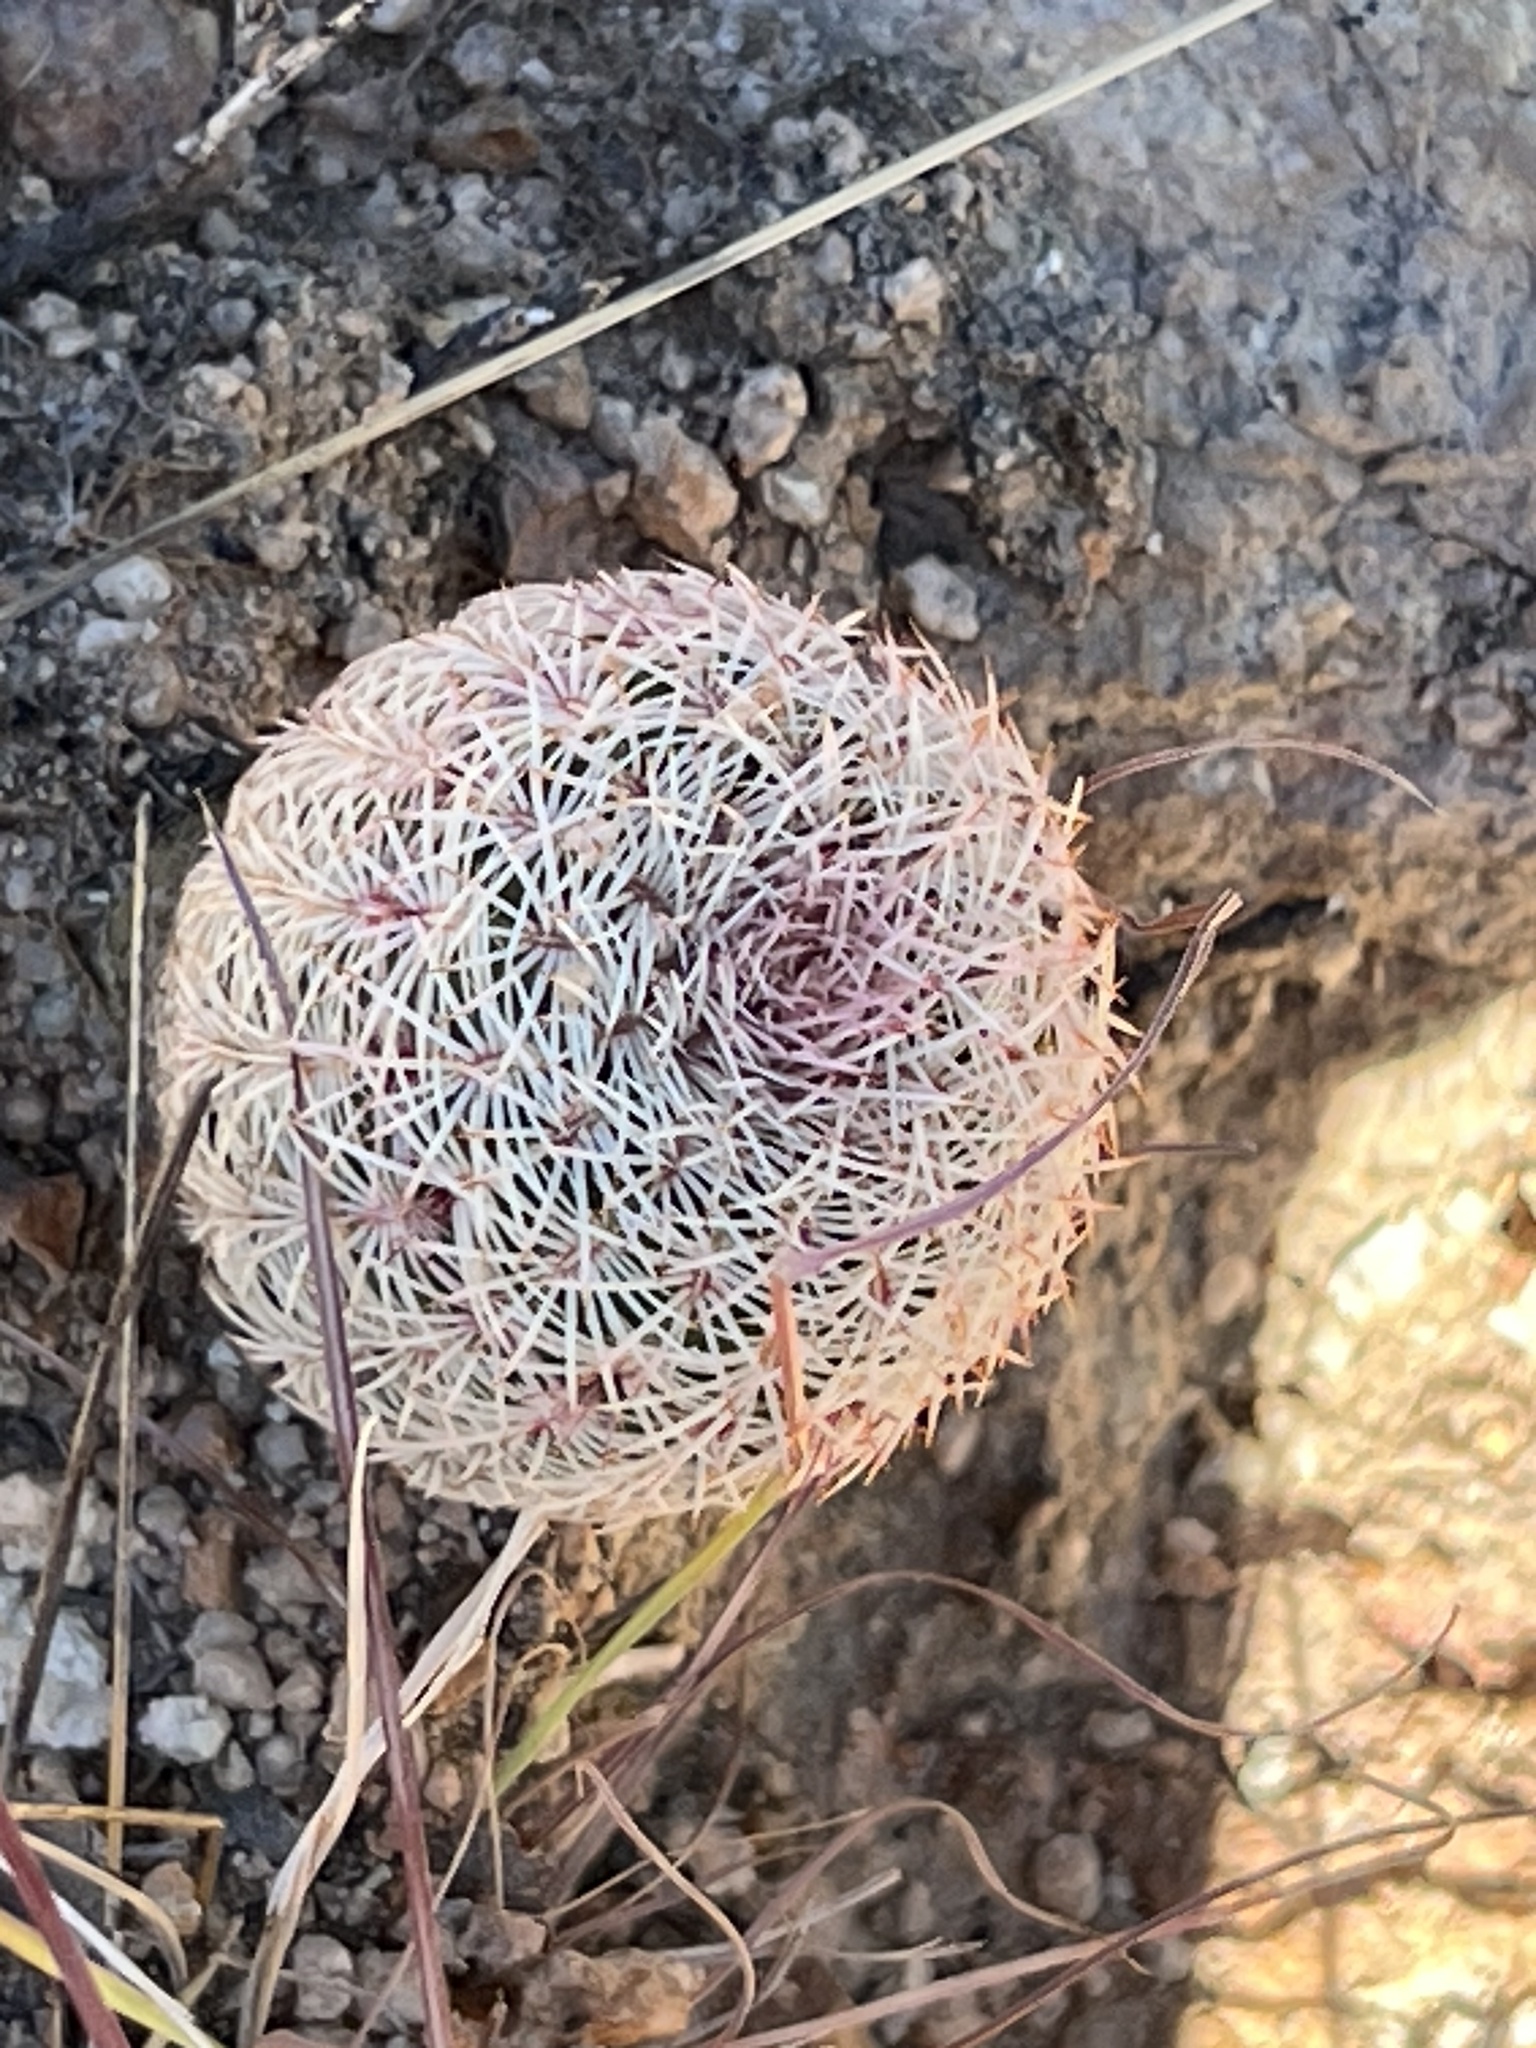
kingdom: Plantae
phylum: Tracheophyta
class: Magnoliopsida
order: Caryophyllales
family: Cactaceae
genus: Echinocereus
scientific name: Echinocereus rigidissimus
